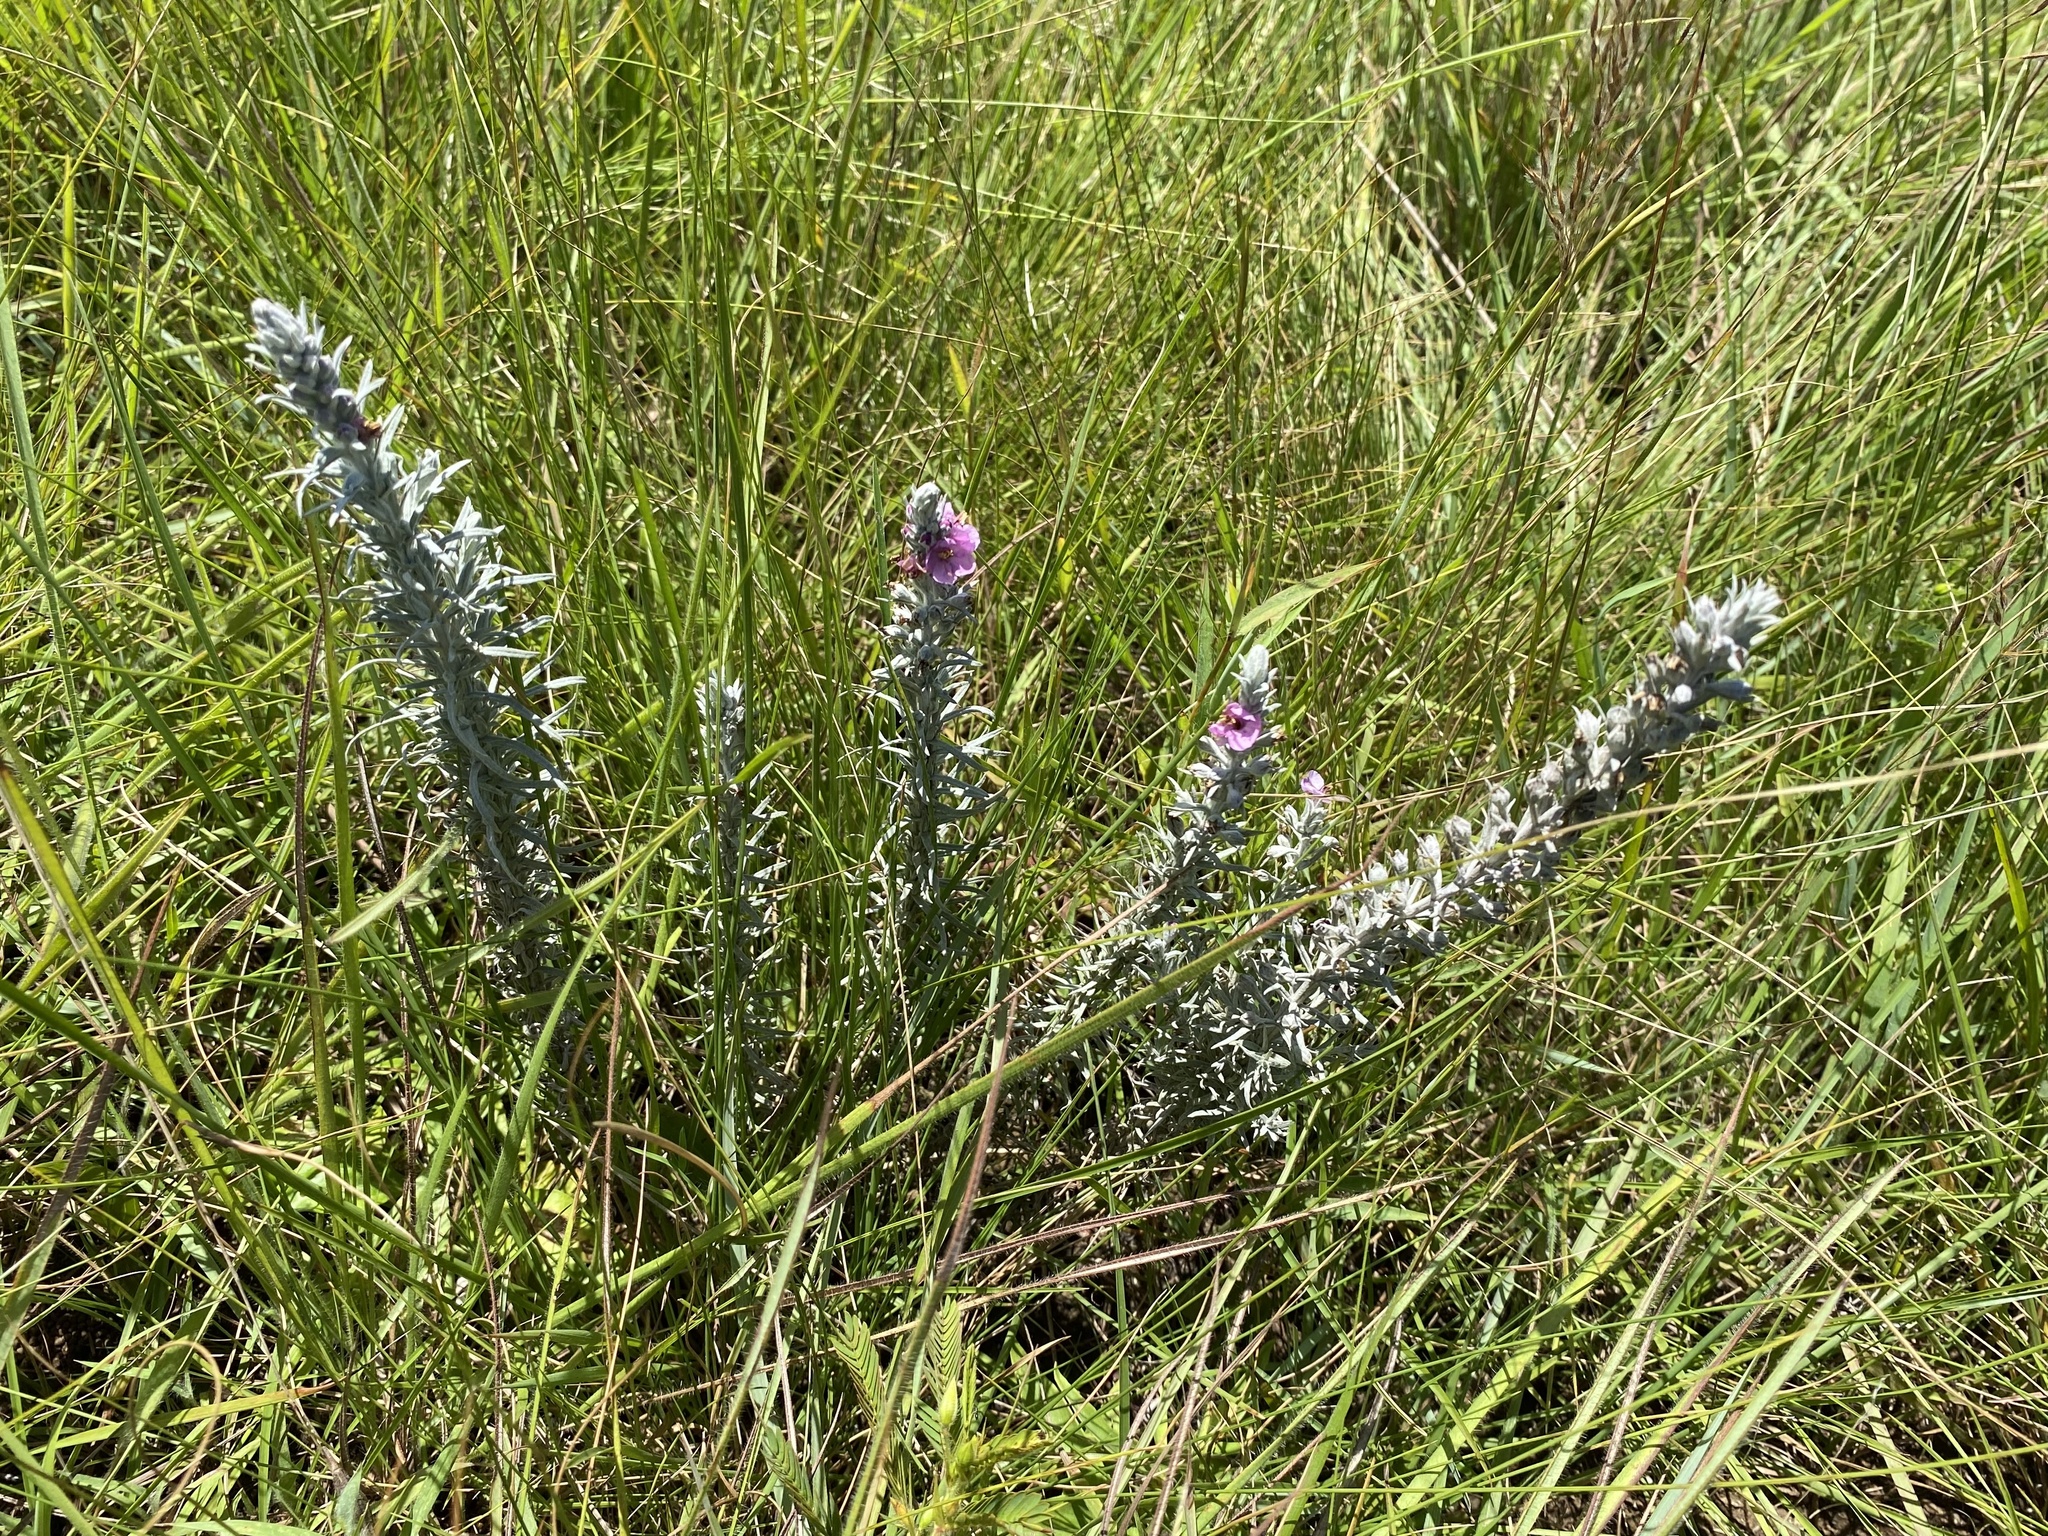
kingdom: Plantae
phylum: Tracheophyta
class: Magnoliopsida
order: Lamiales
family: Orobanchaceae
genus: Sopubia
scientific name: Sopubia cana
